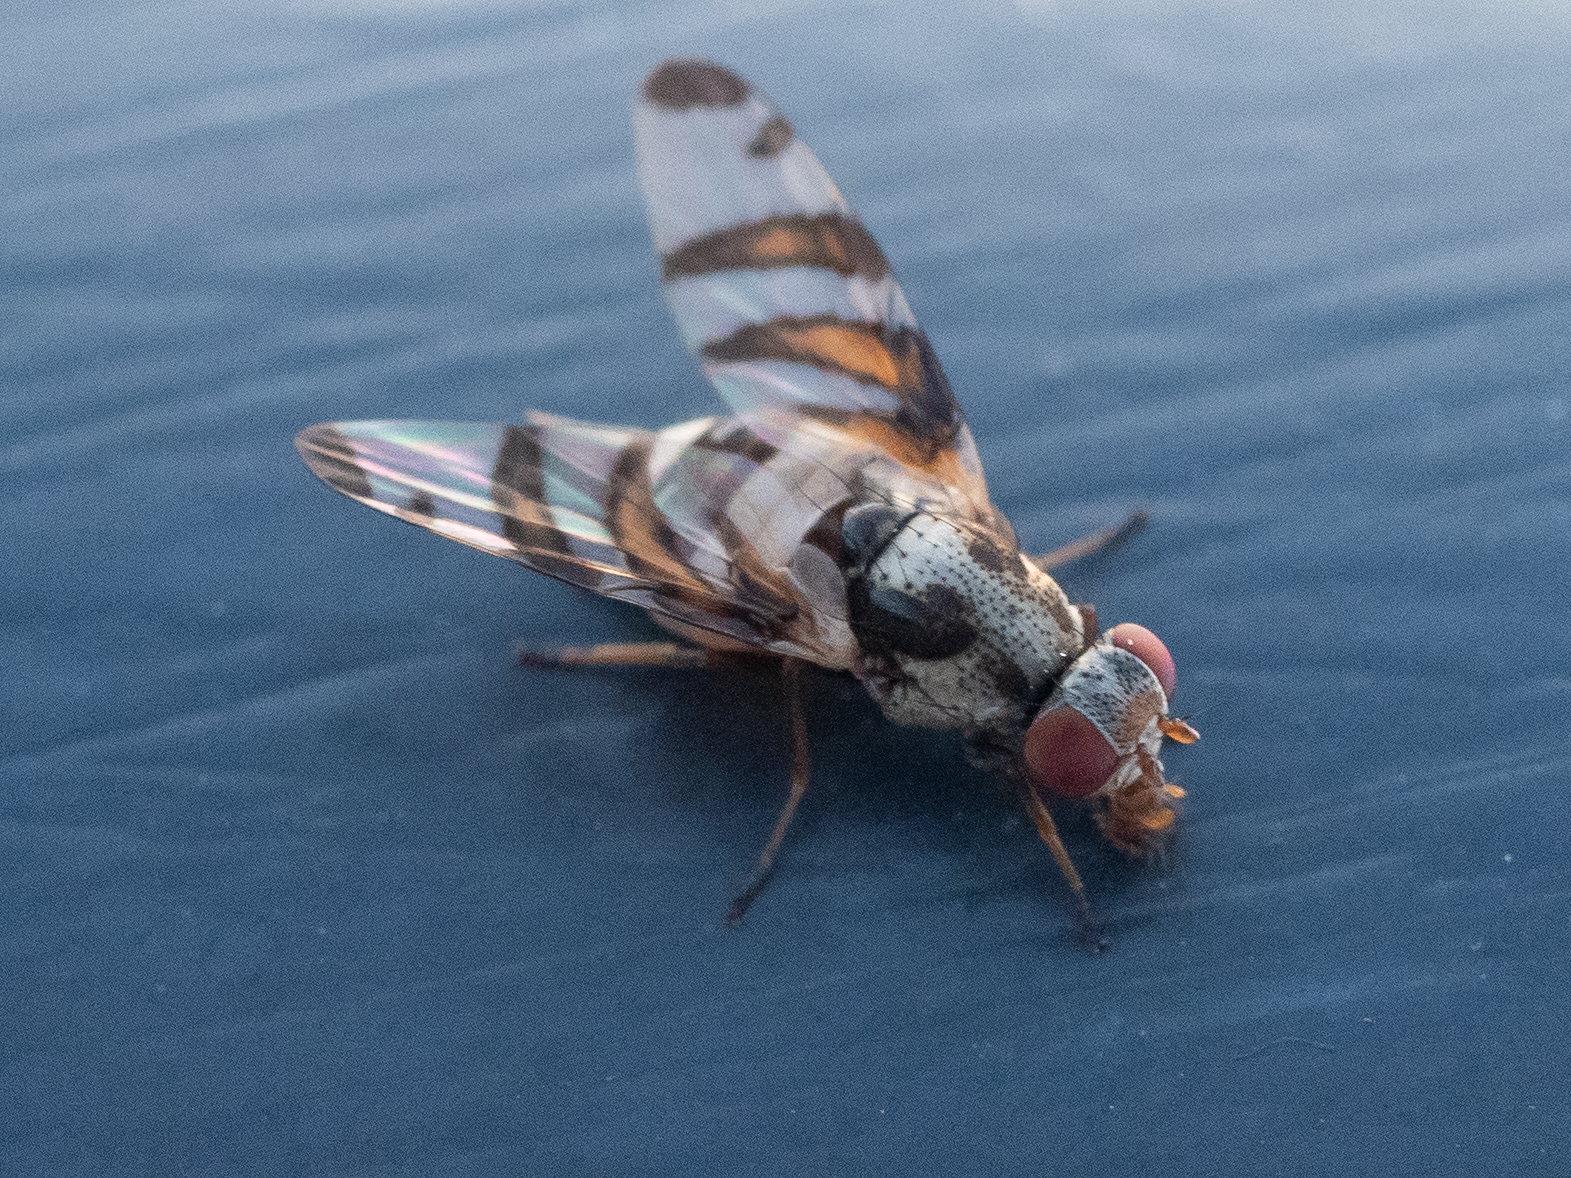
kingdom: Animalia
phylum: Arthropoda
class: Insecta
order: Diptera
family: Ulidiidae
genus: Myennis
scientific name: Myennis octopunctata
